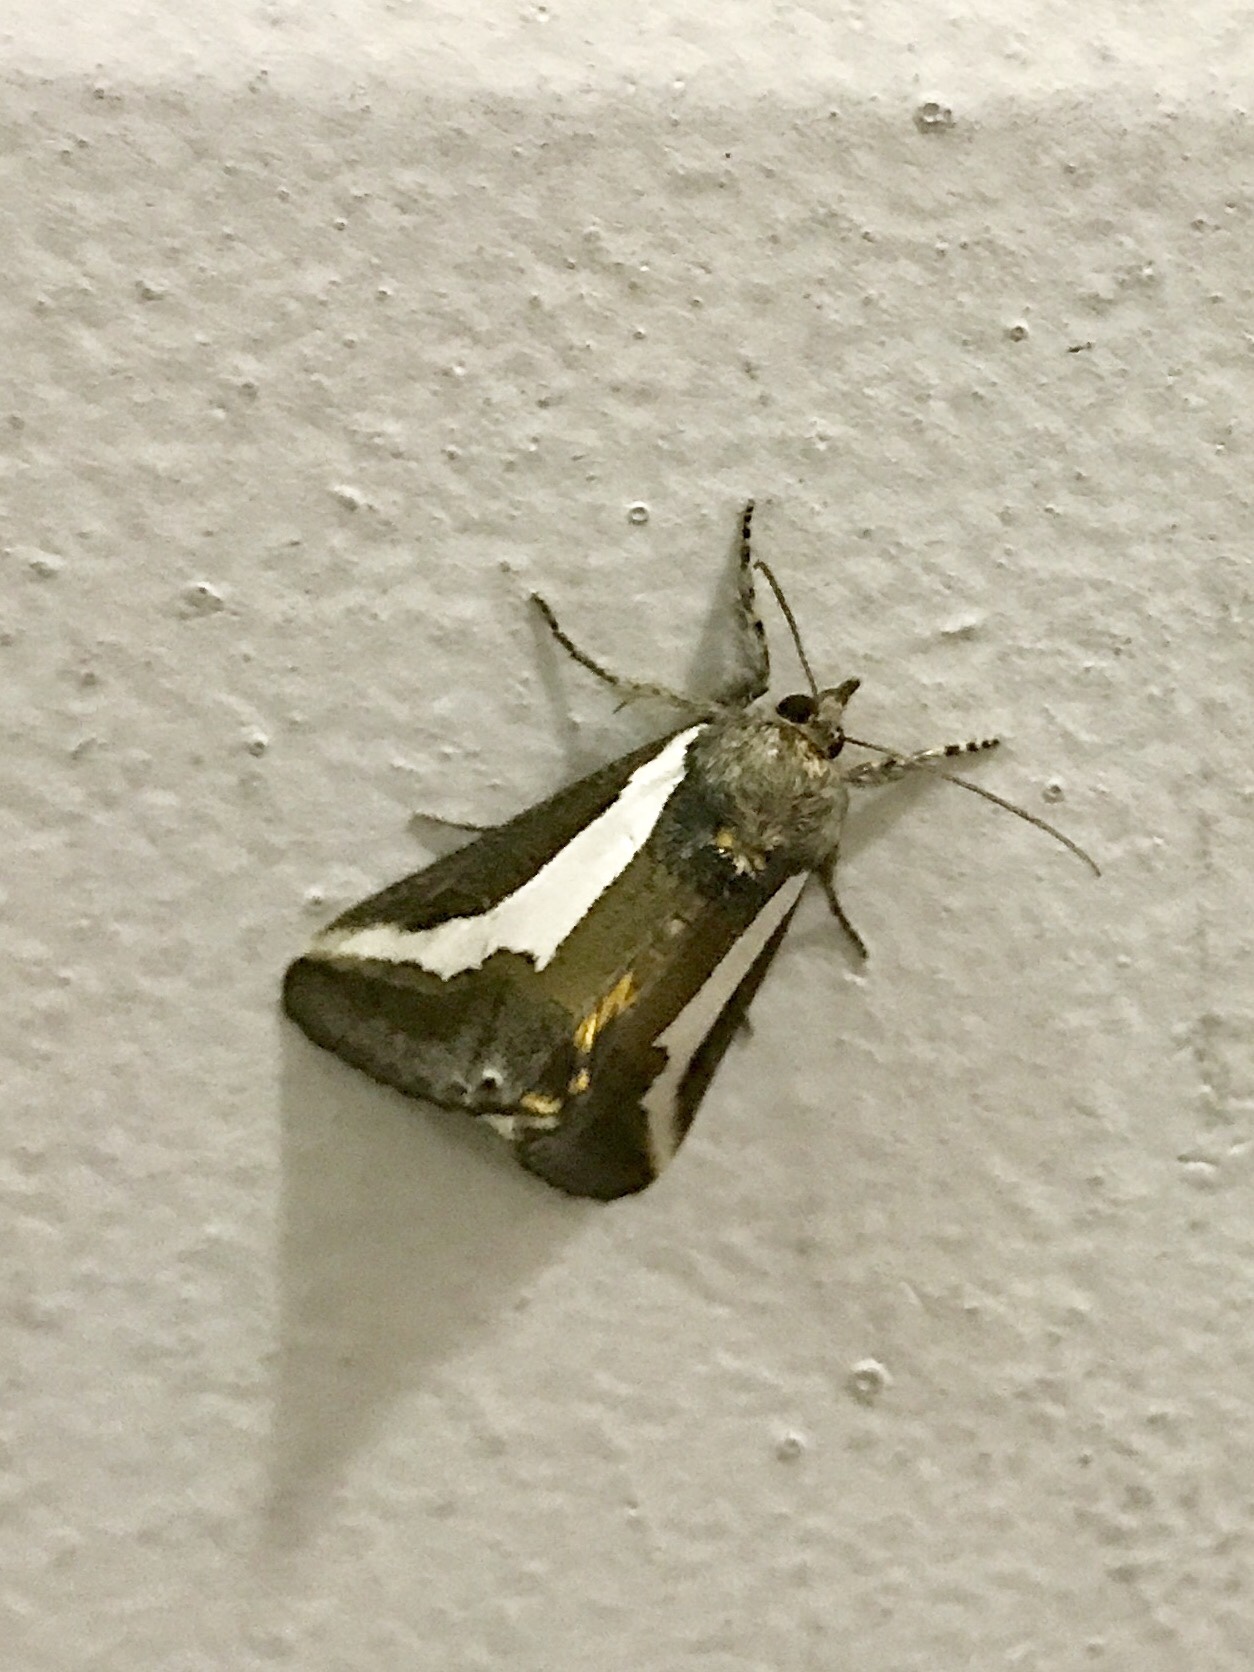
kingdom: Animalia
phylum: Arthropoda
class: Insecta
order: Lepidoptera
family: Noctuidae
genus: Euscirrhopterus
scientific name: Euscirrhopterus cosyra
